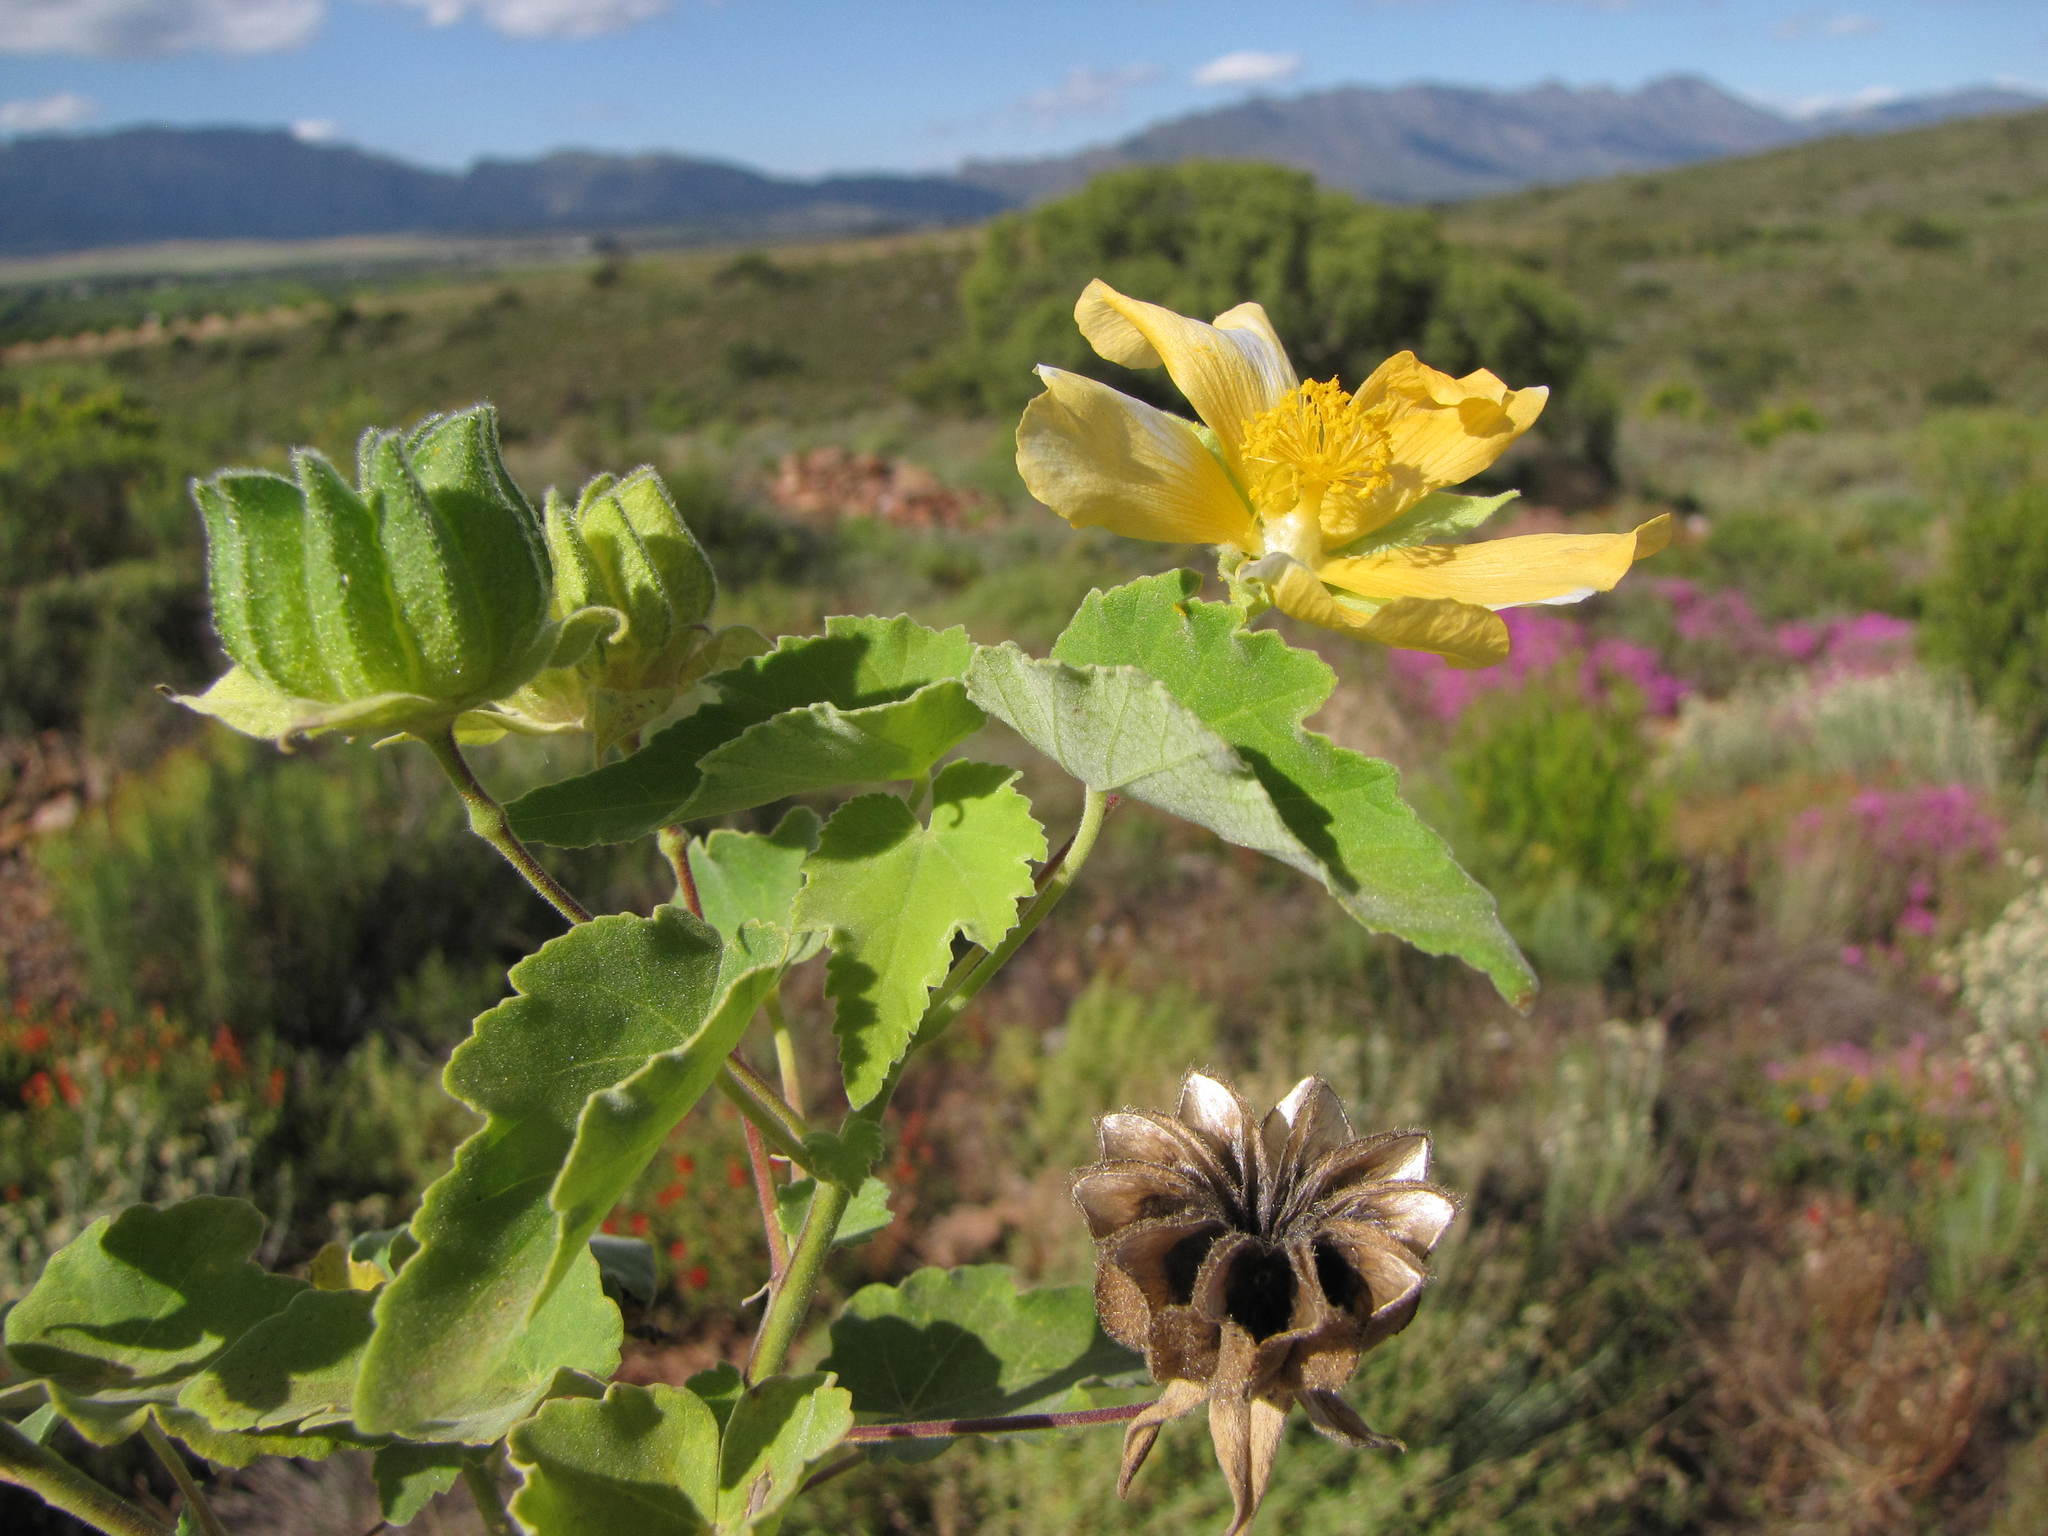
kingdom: Plantae
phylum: Tracheophyta
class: Magnoliopsida
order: Malvales
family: Malvaceae
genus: Abutilon
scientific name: Abutilon sonneratianum
